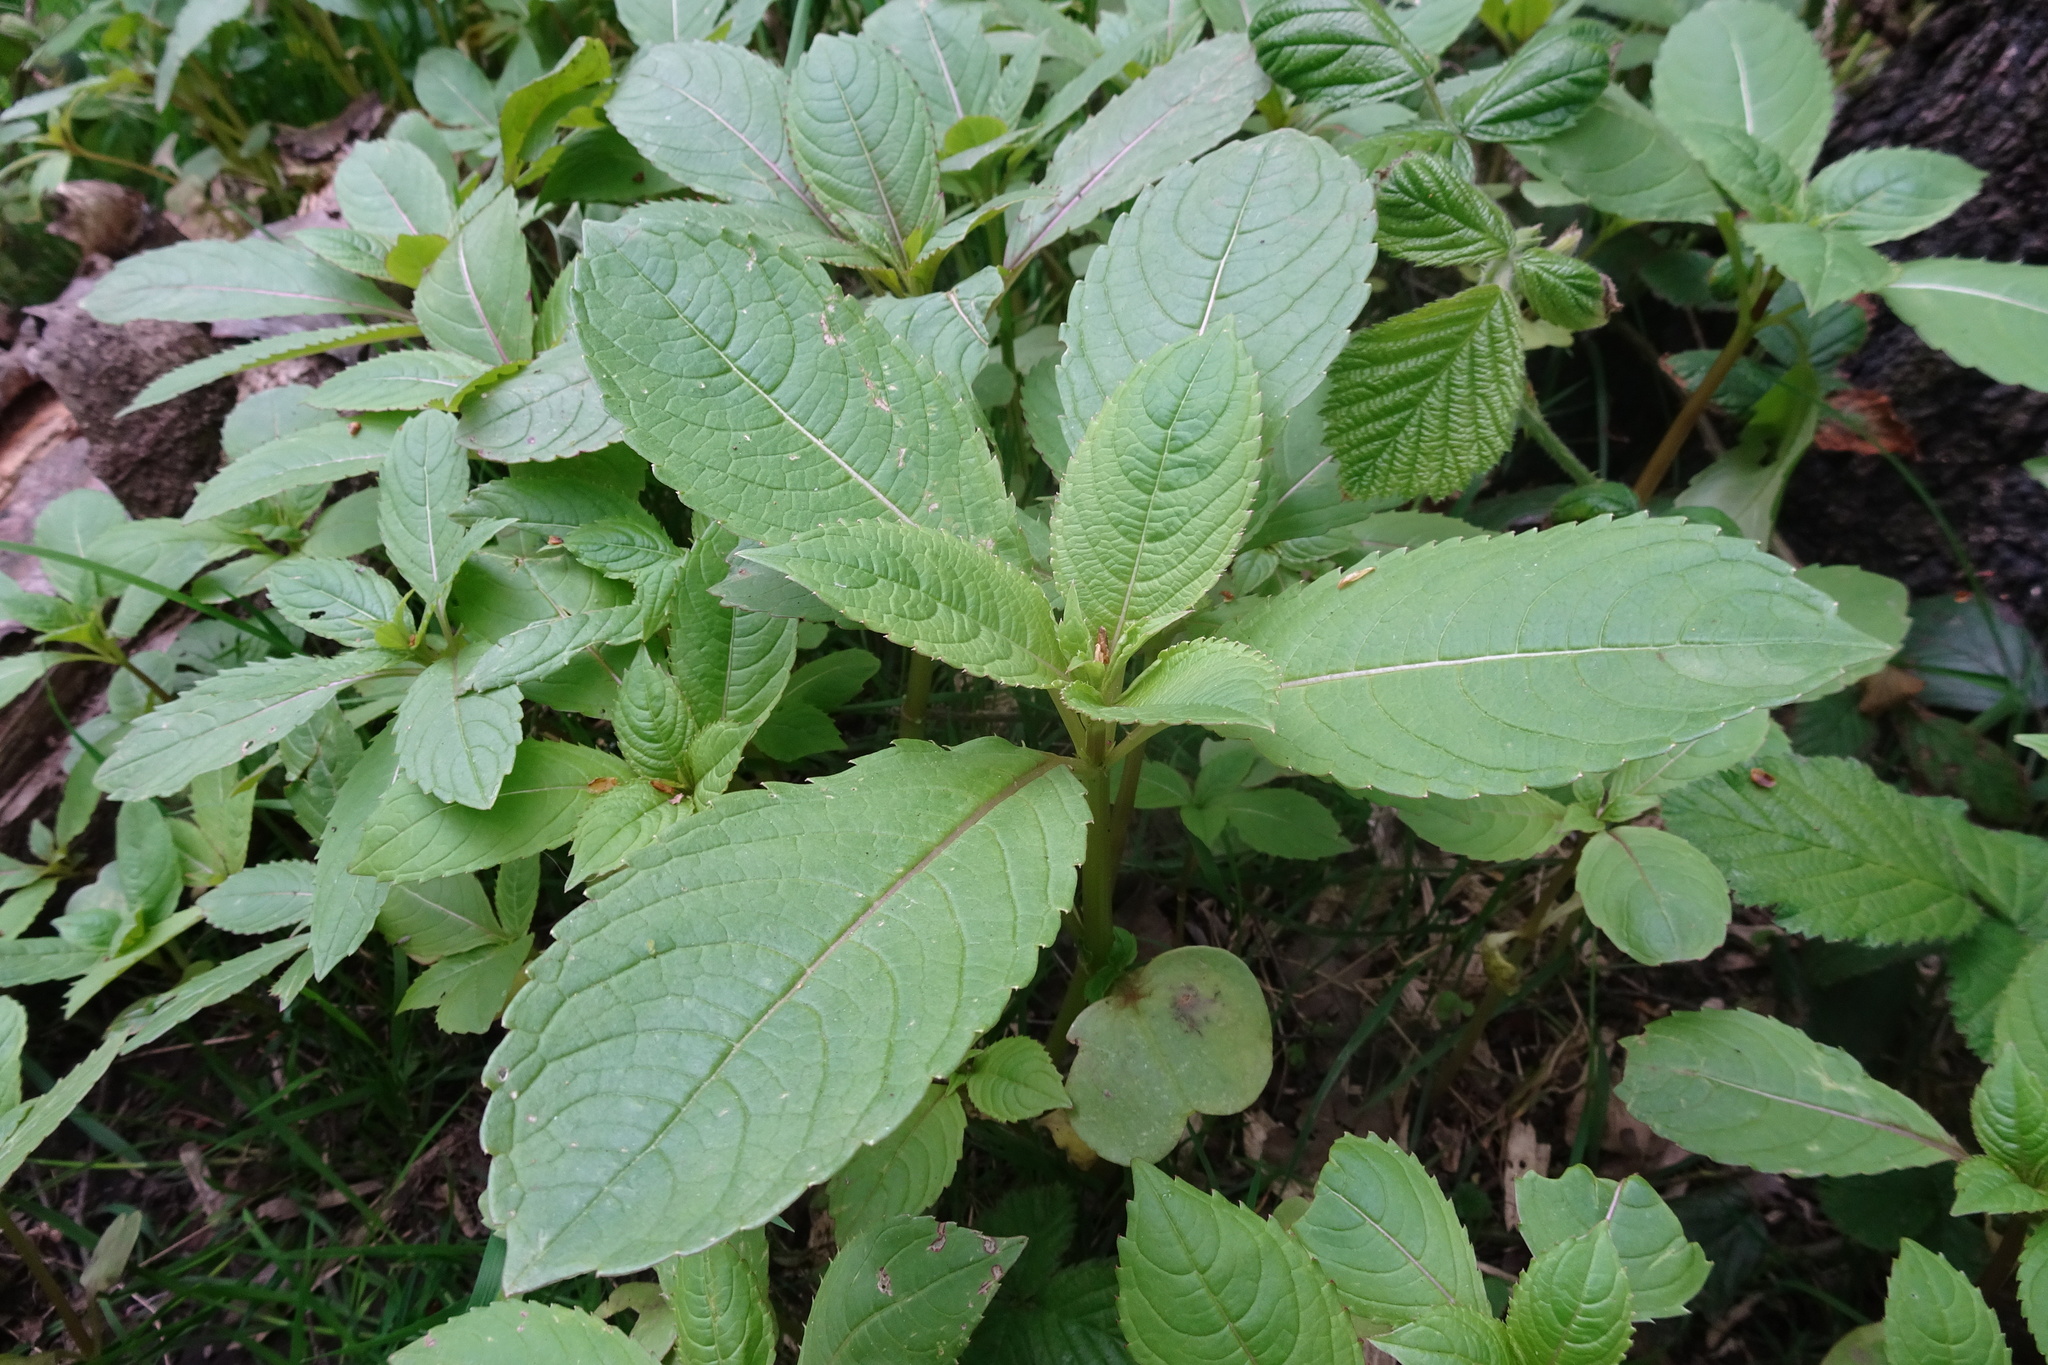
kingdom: Plantae
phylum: Tracheophyta
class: Magnoliopsida
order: Ericales
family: Balsaminaceae
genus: Impatiens
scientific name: Impatiens glandulifera
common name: Himalayan balsam
